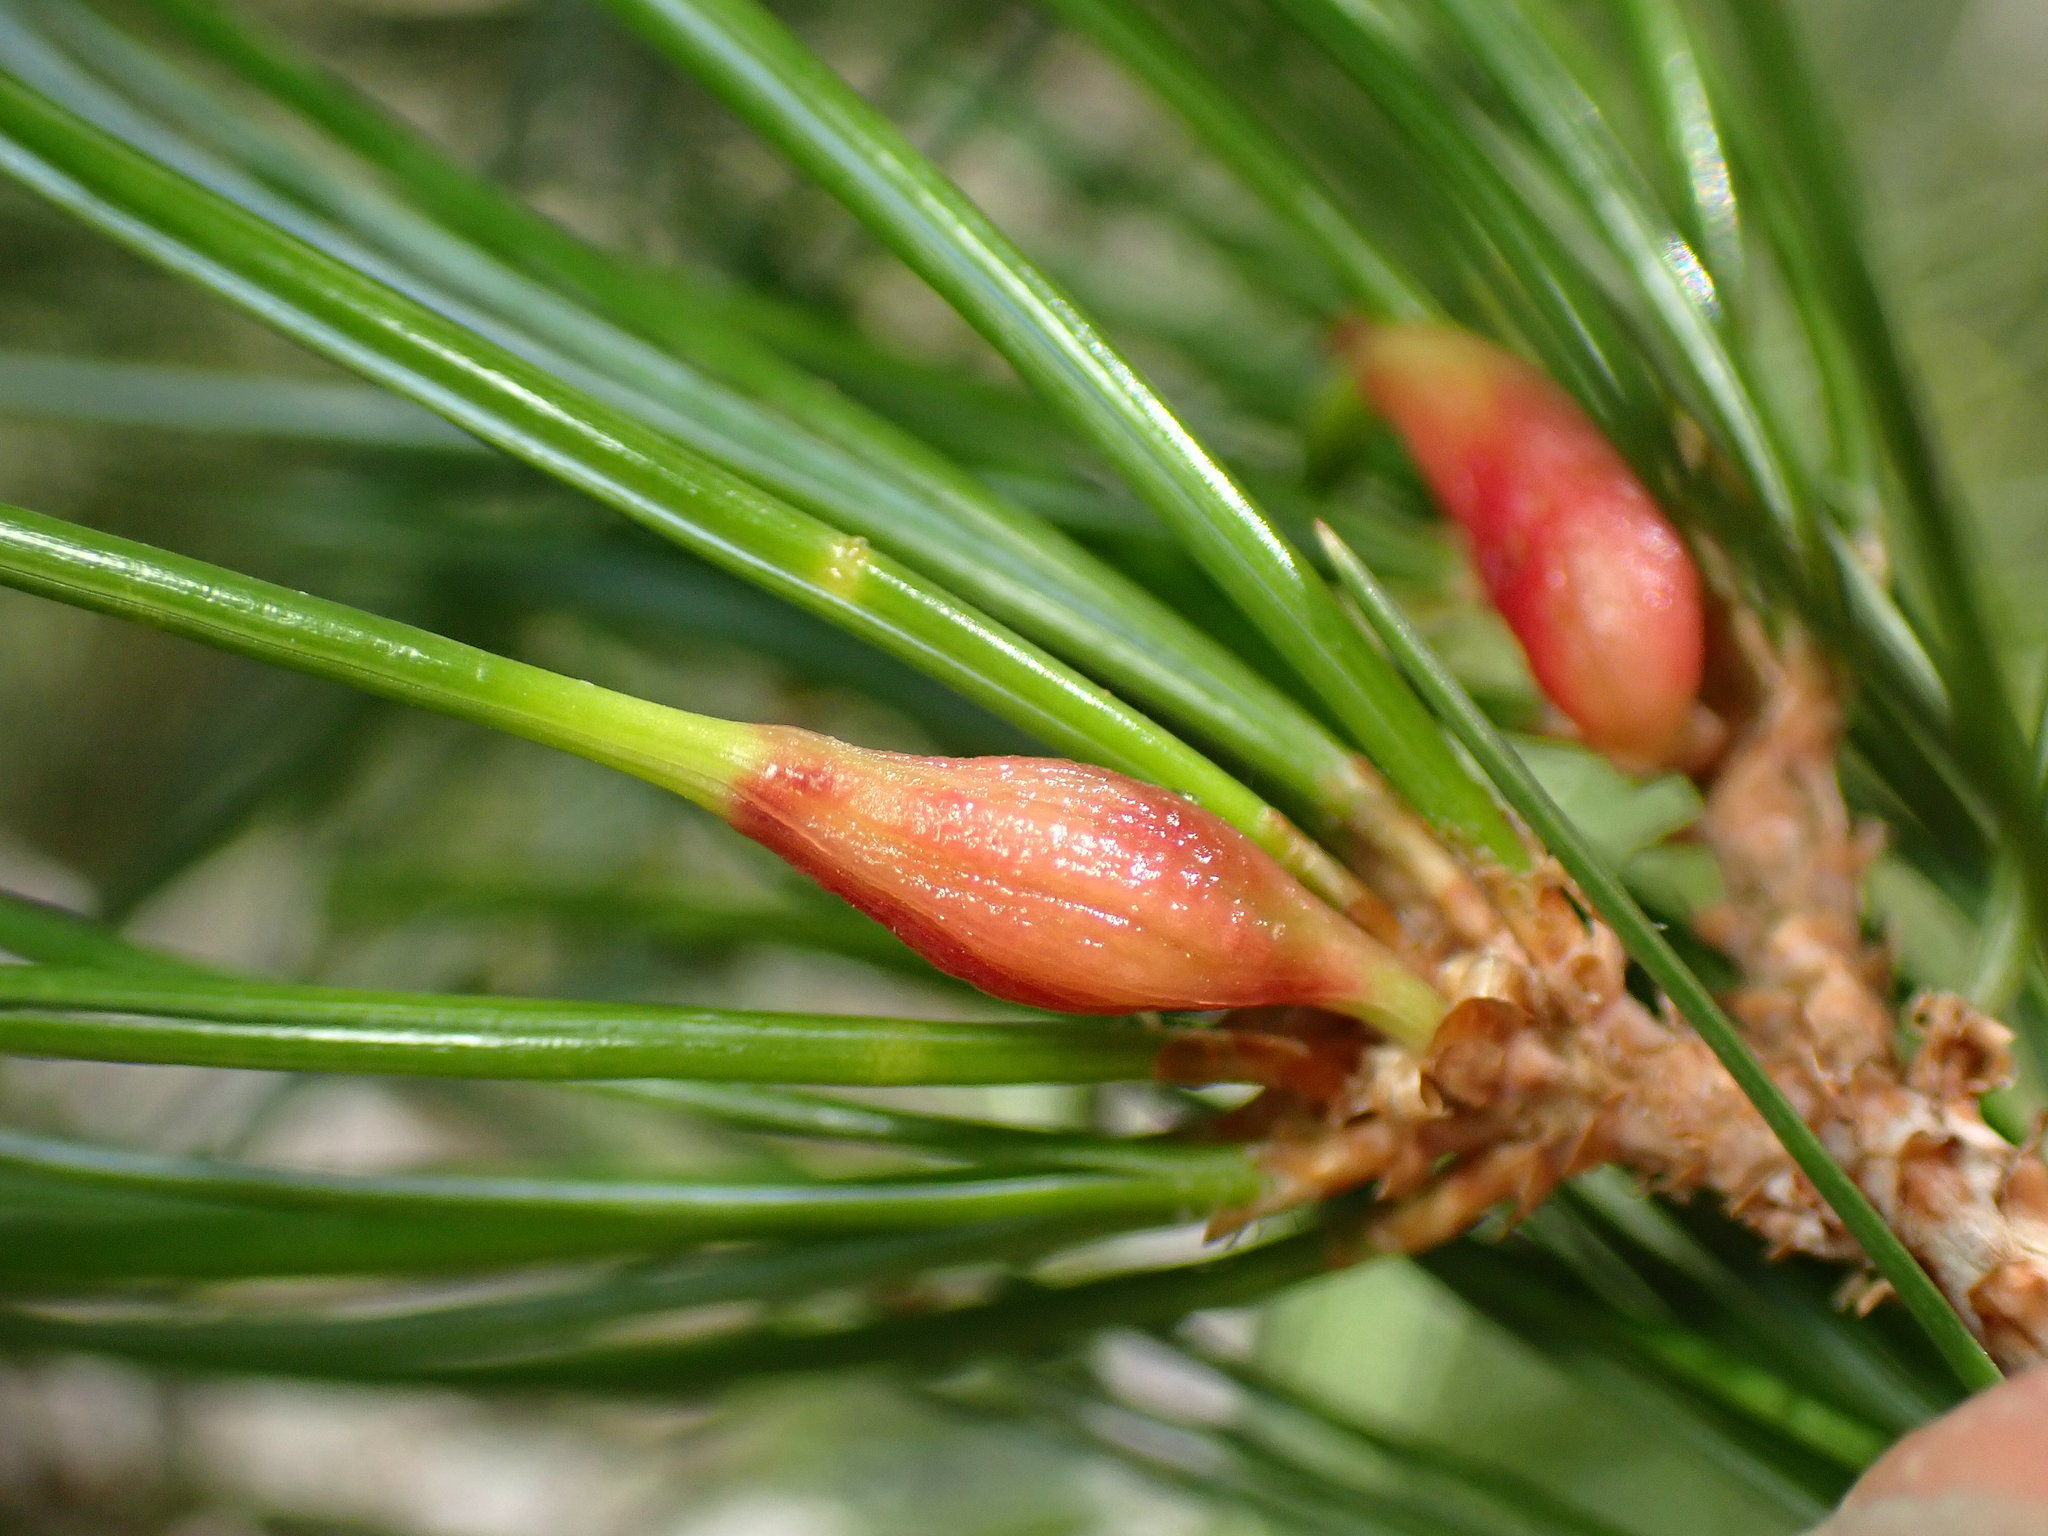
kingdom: Animalia
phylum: Arthropoda
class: Insecta
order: Diptera
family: Cecidomyiidae
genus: Pinyonia
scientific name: Pinyonia edulicola
